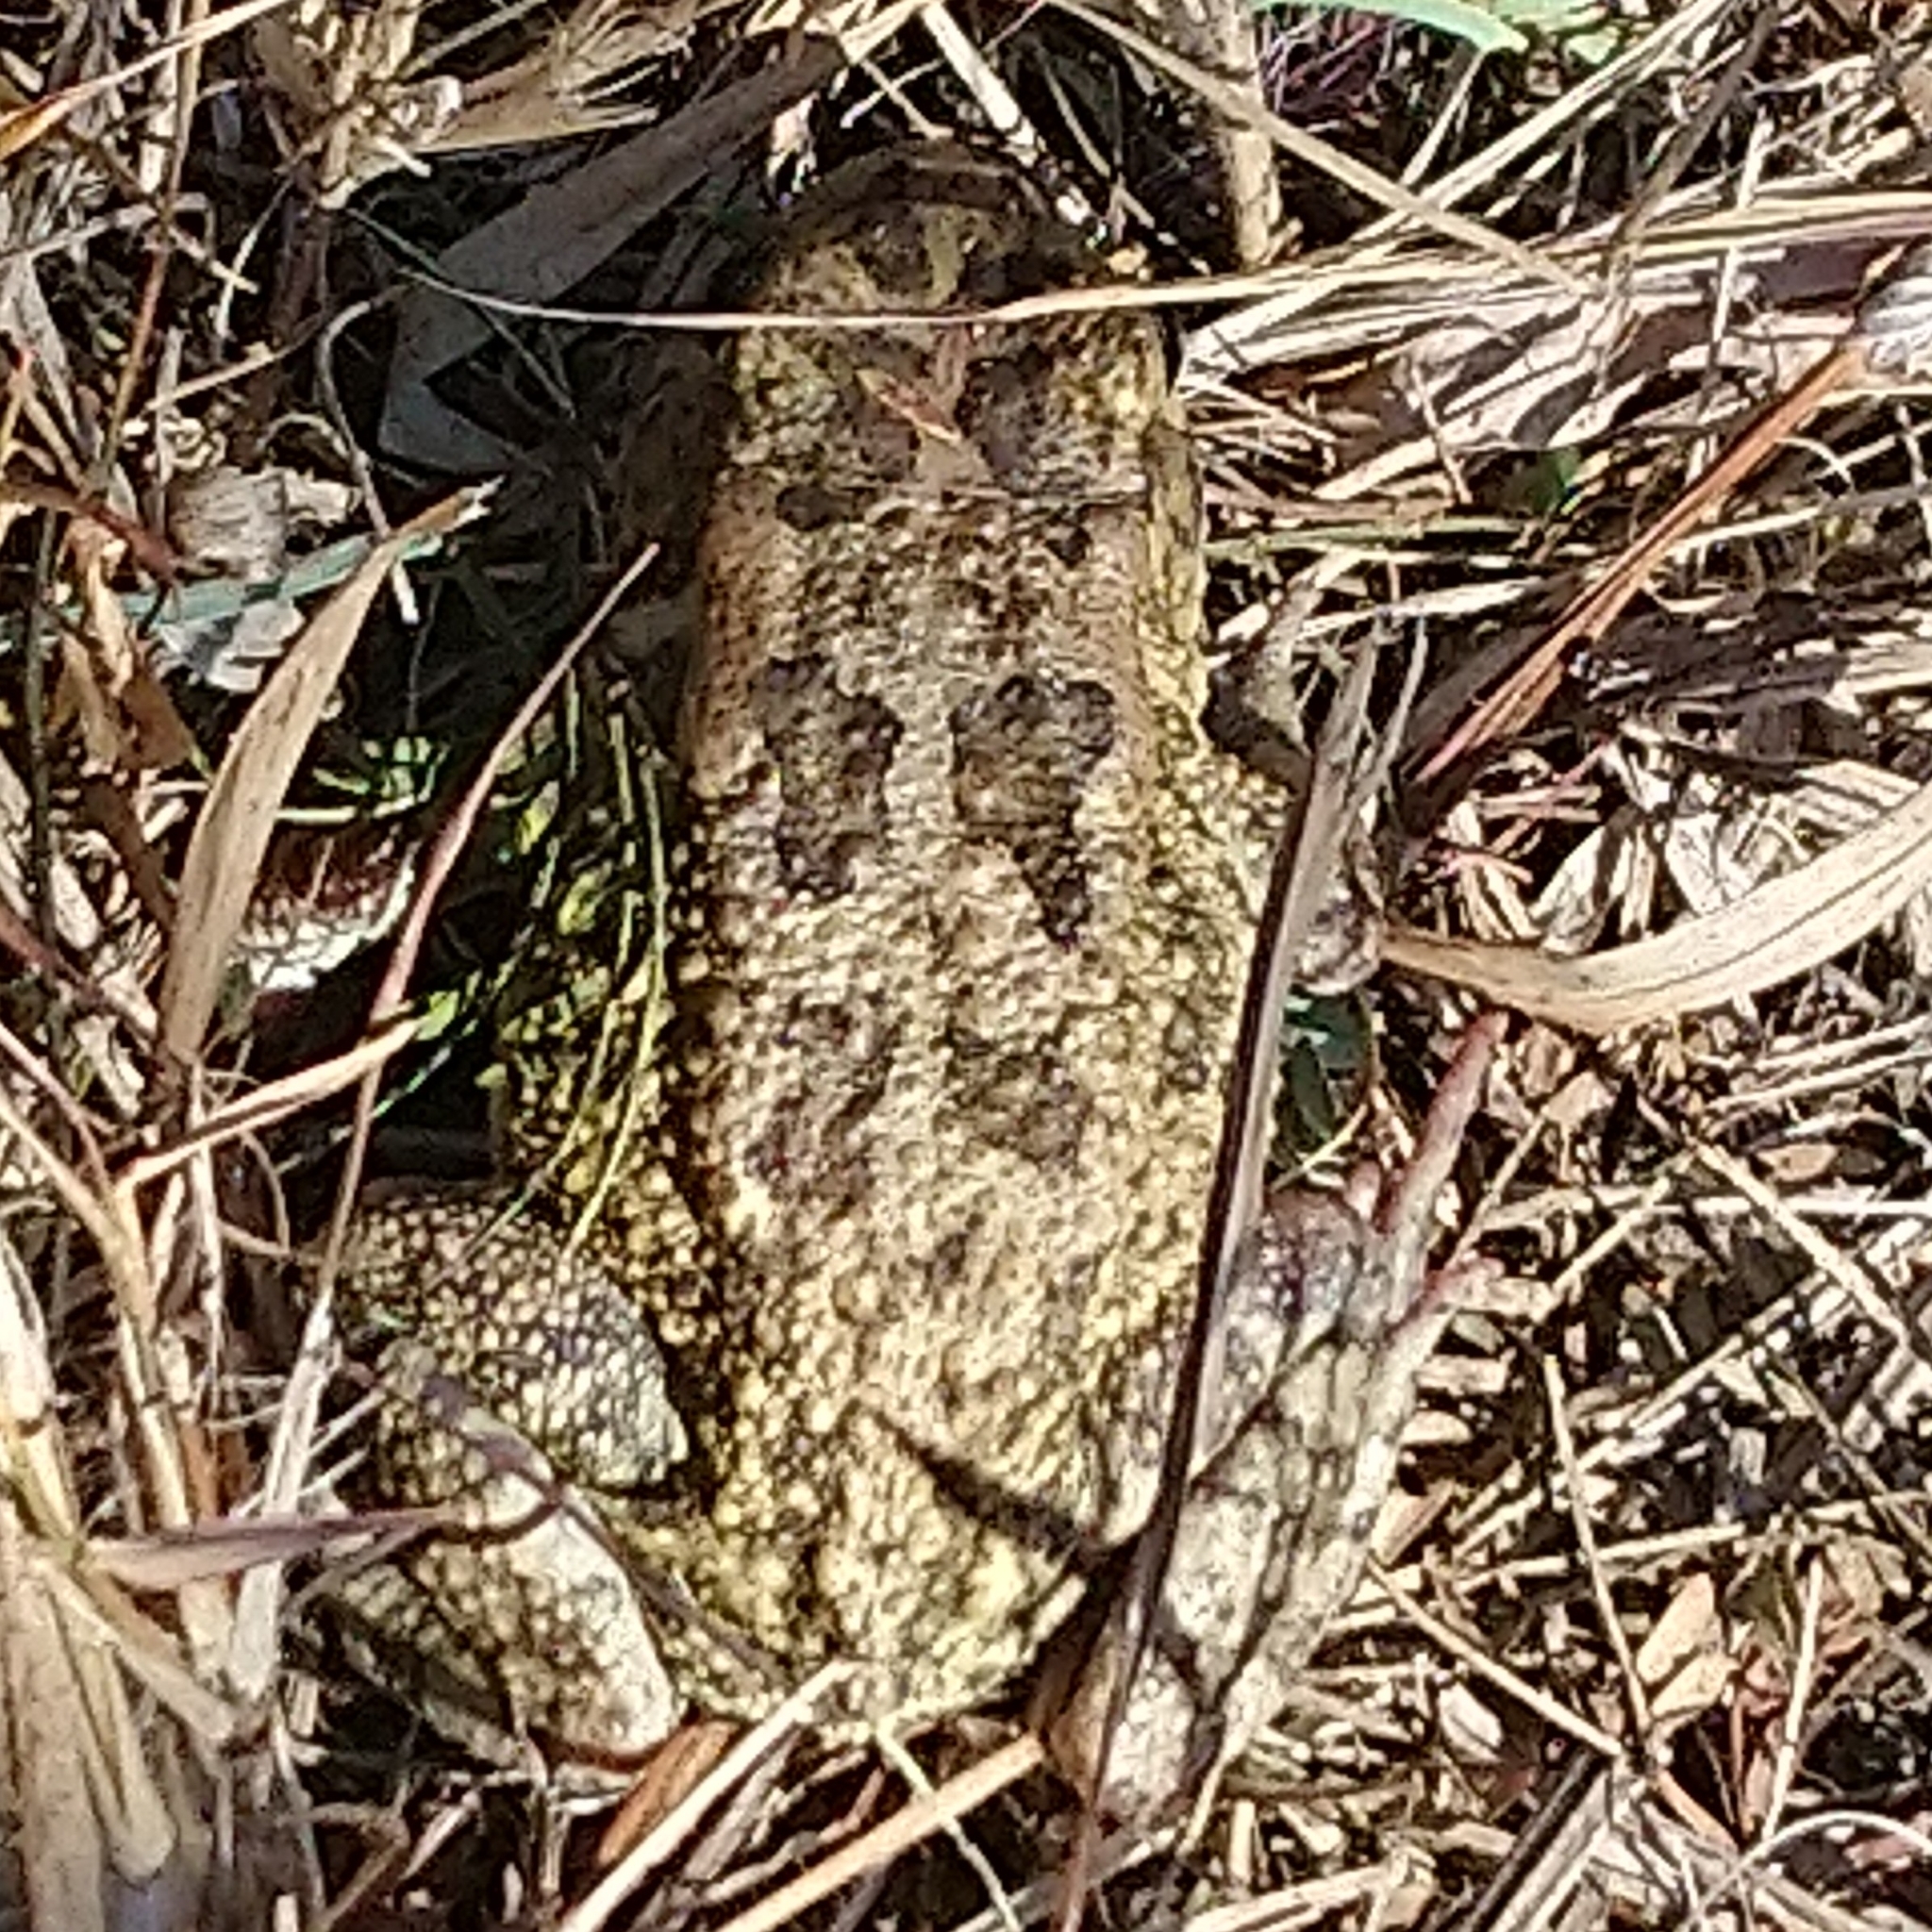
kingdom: Animalia
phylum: Chordata
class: Amphibia
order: Anura
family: Bufonidae
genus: Sclerophrys
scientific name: Sclerophrys gutturalis
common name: African common toad
